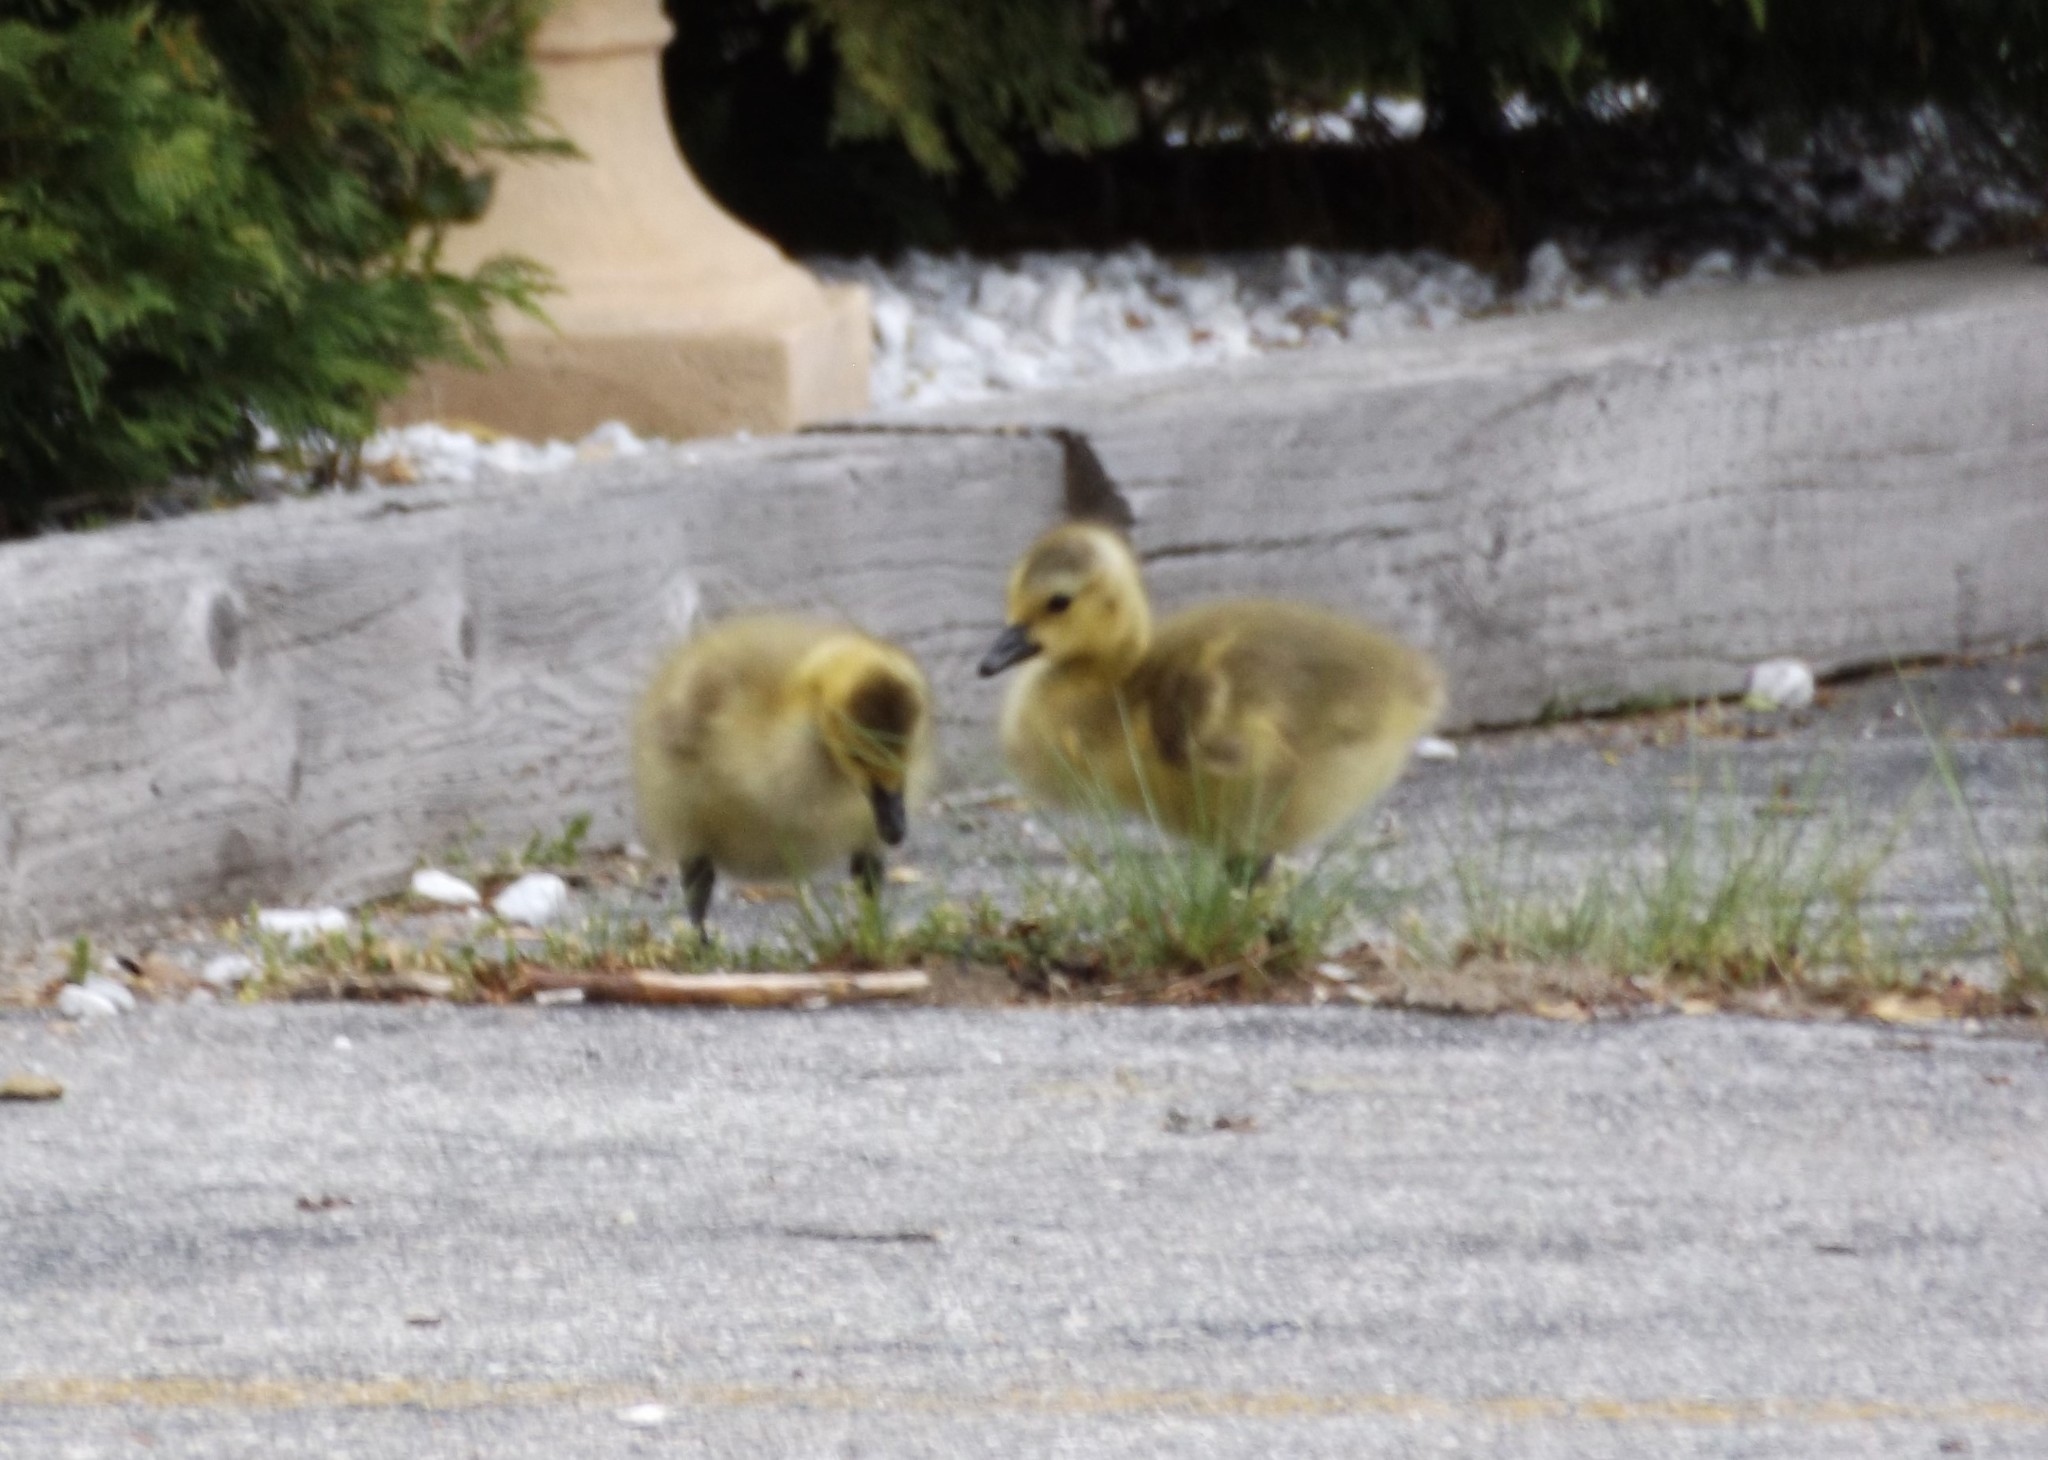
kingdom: Animalia
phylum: Chordata
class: Aves
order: Anseriformes
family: Anatidae
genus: Branta
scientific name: Branta canadensis
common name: Canada goose
